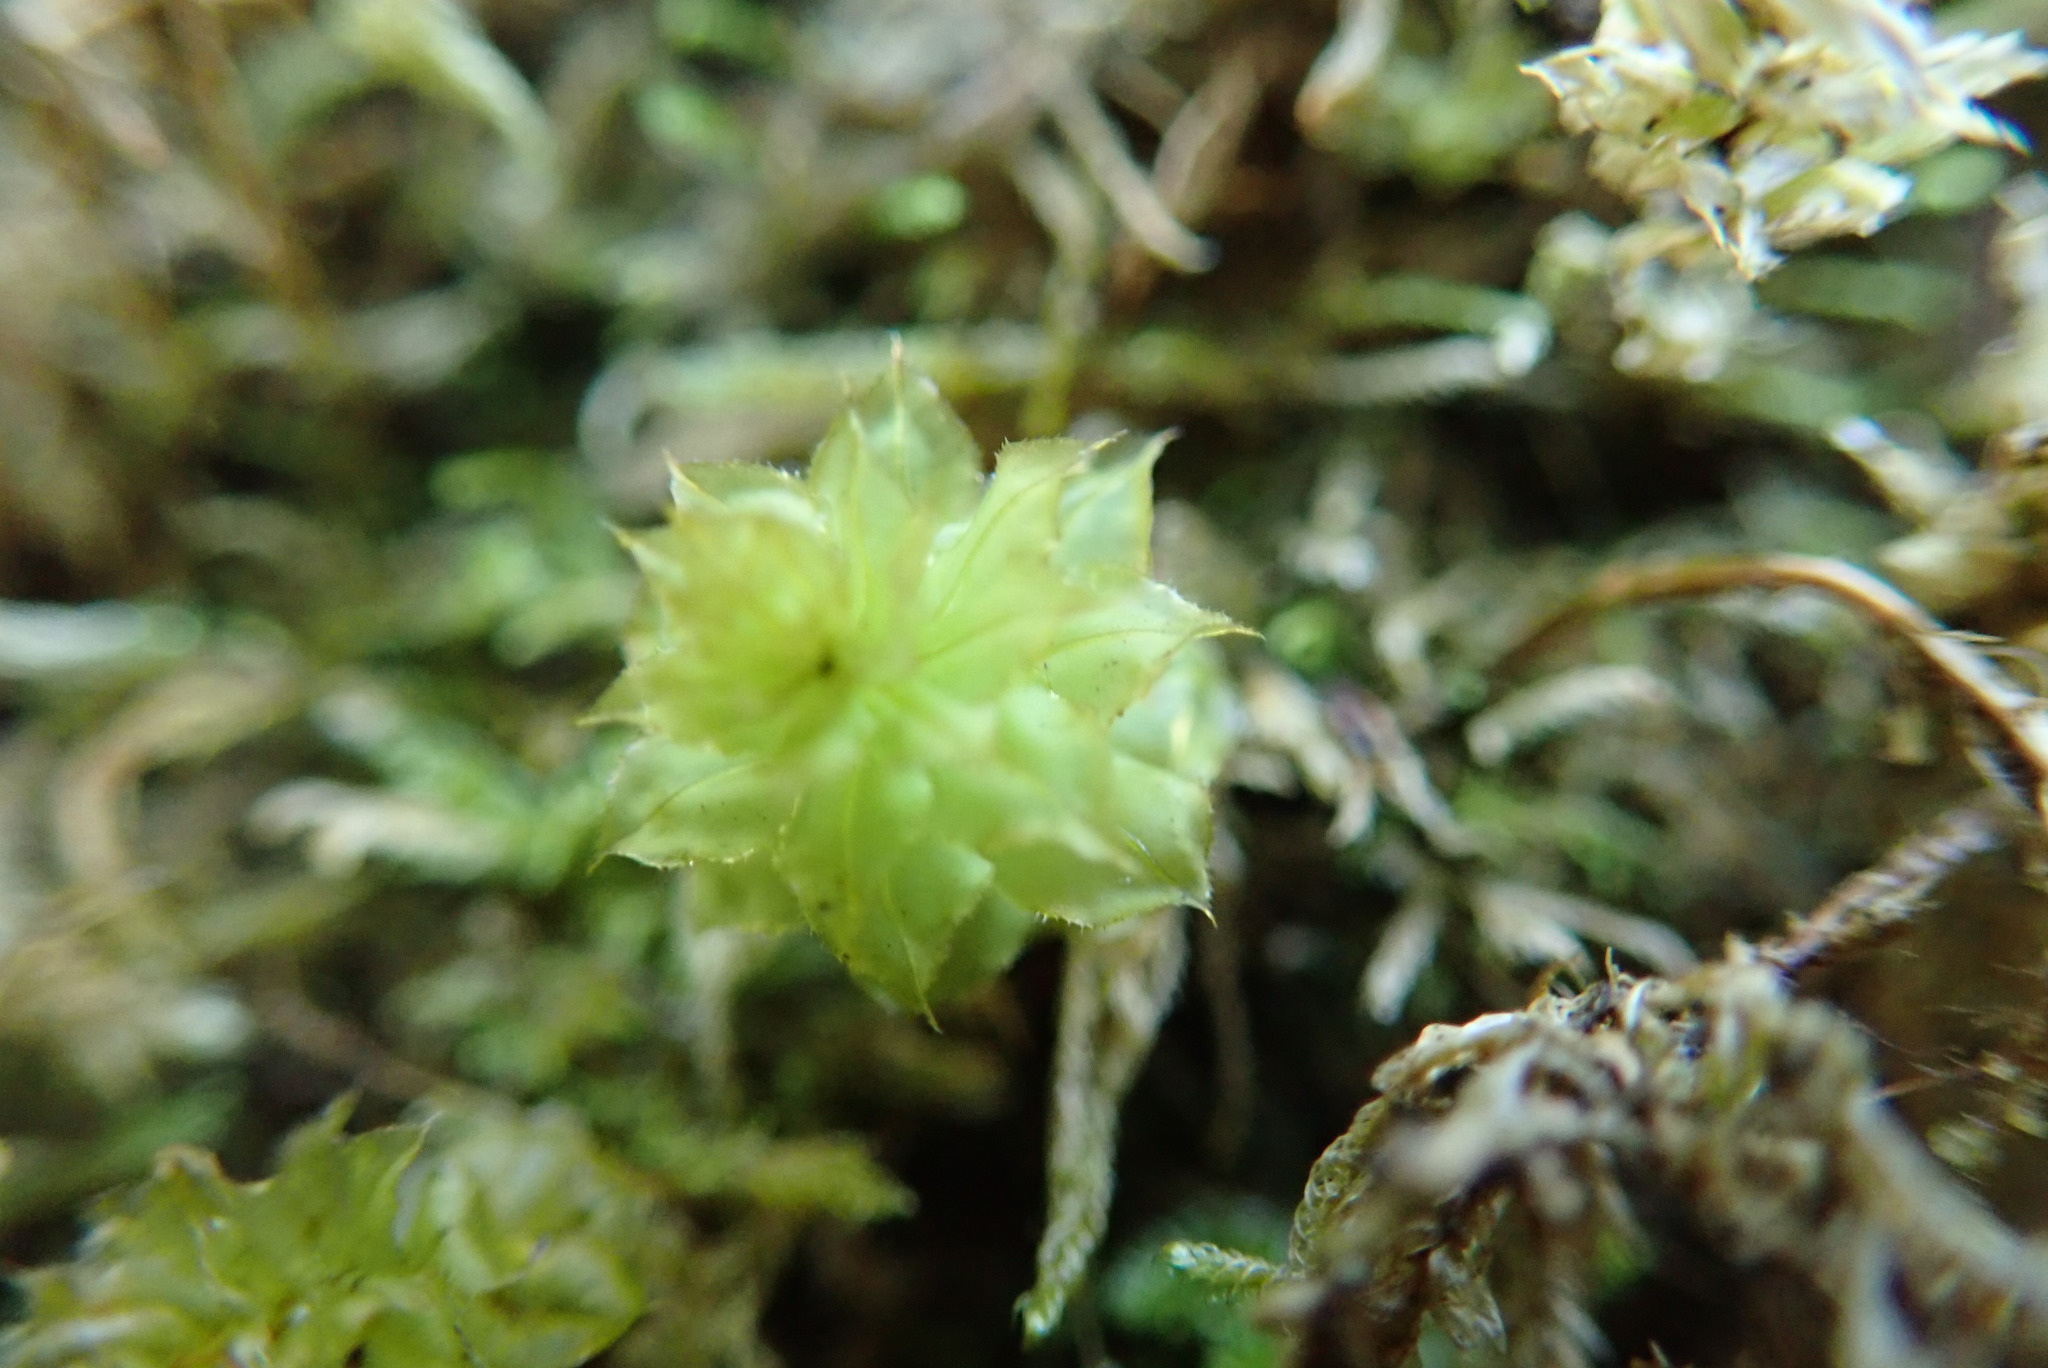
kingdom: Plantae
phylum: Bryophyta
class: Bryopsida
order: Bryales
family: Mniaceae
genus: Plagiomnium
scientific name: Plagiomnium venustum
